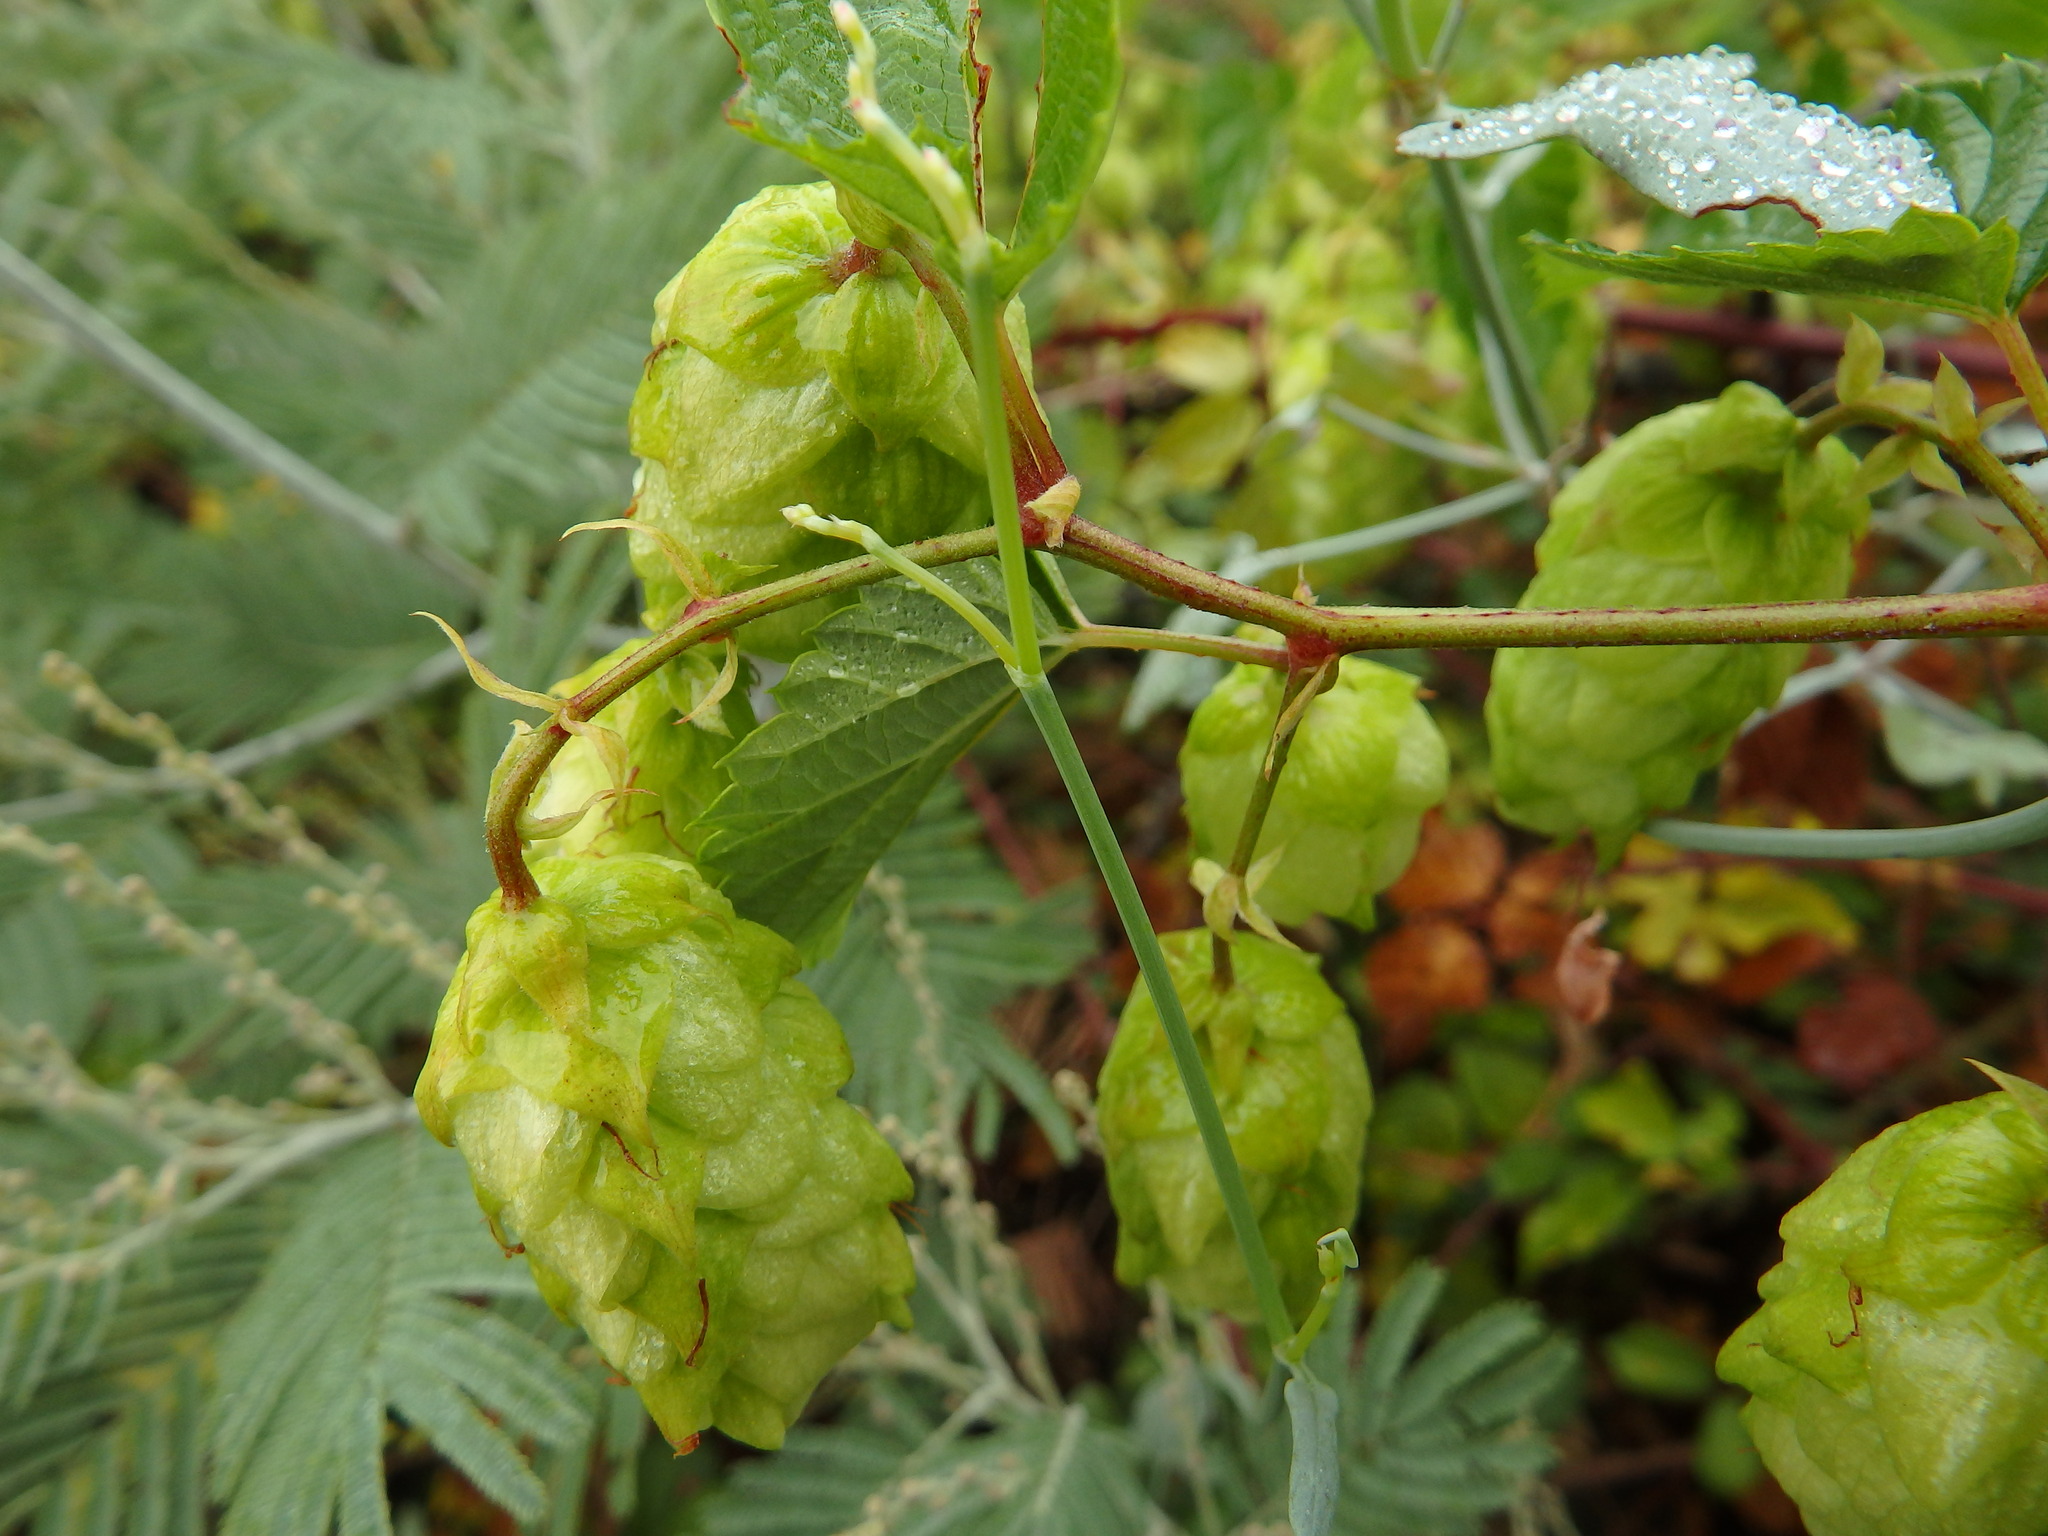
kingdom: Plantae
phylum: Tracheophyta
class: Magnoliopsida
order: Rosales
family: Cannabaceae
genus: Humulus
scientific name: Humulus lupulus
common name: Hop
